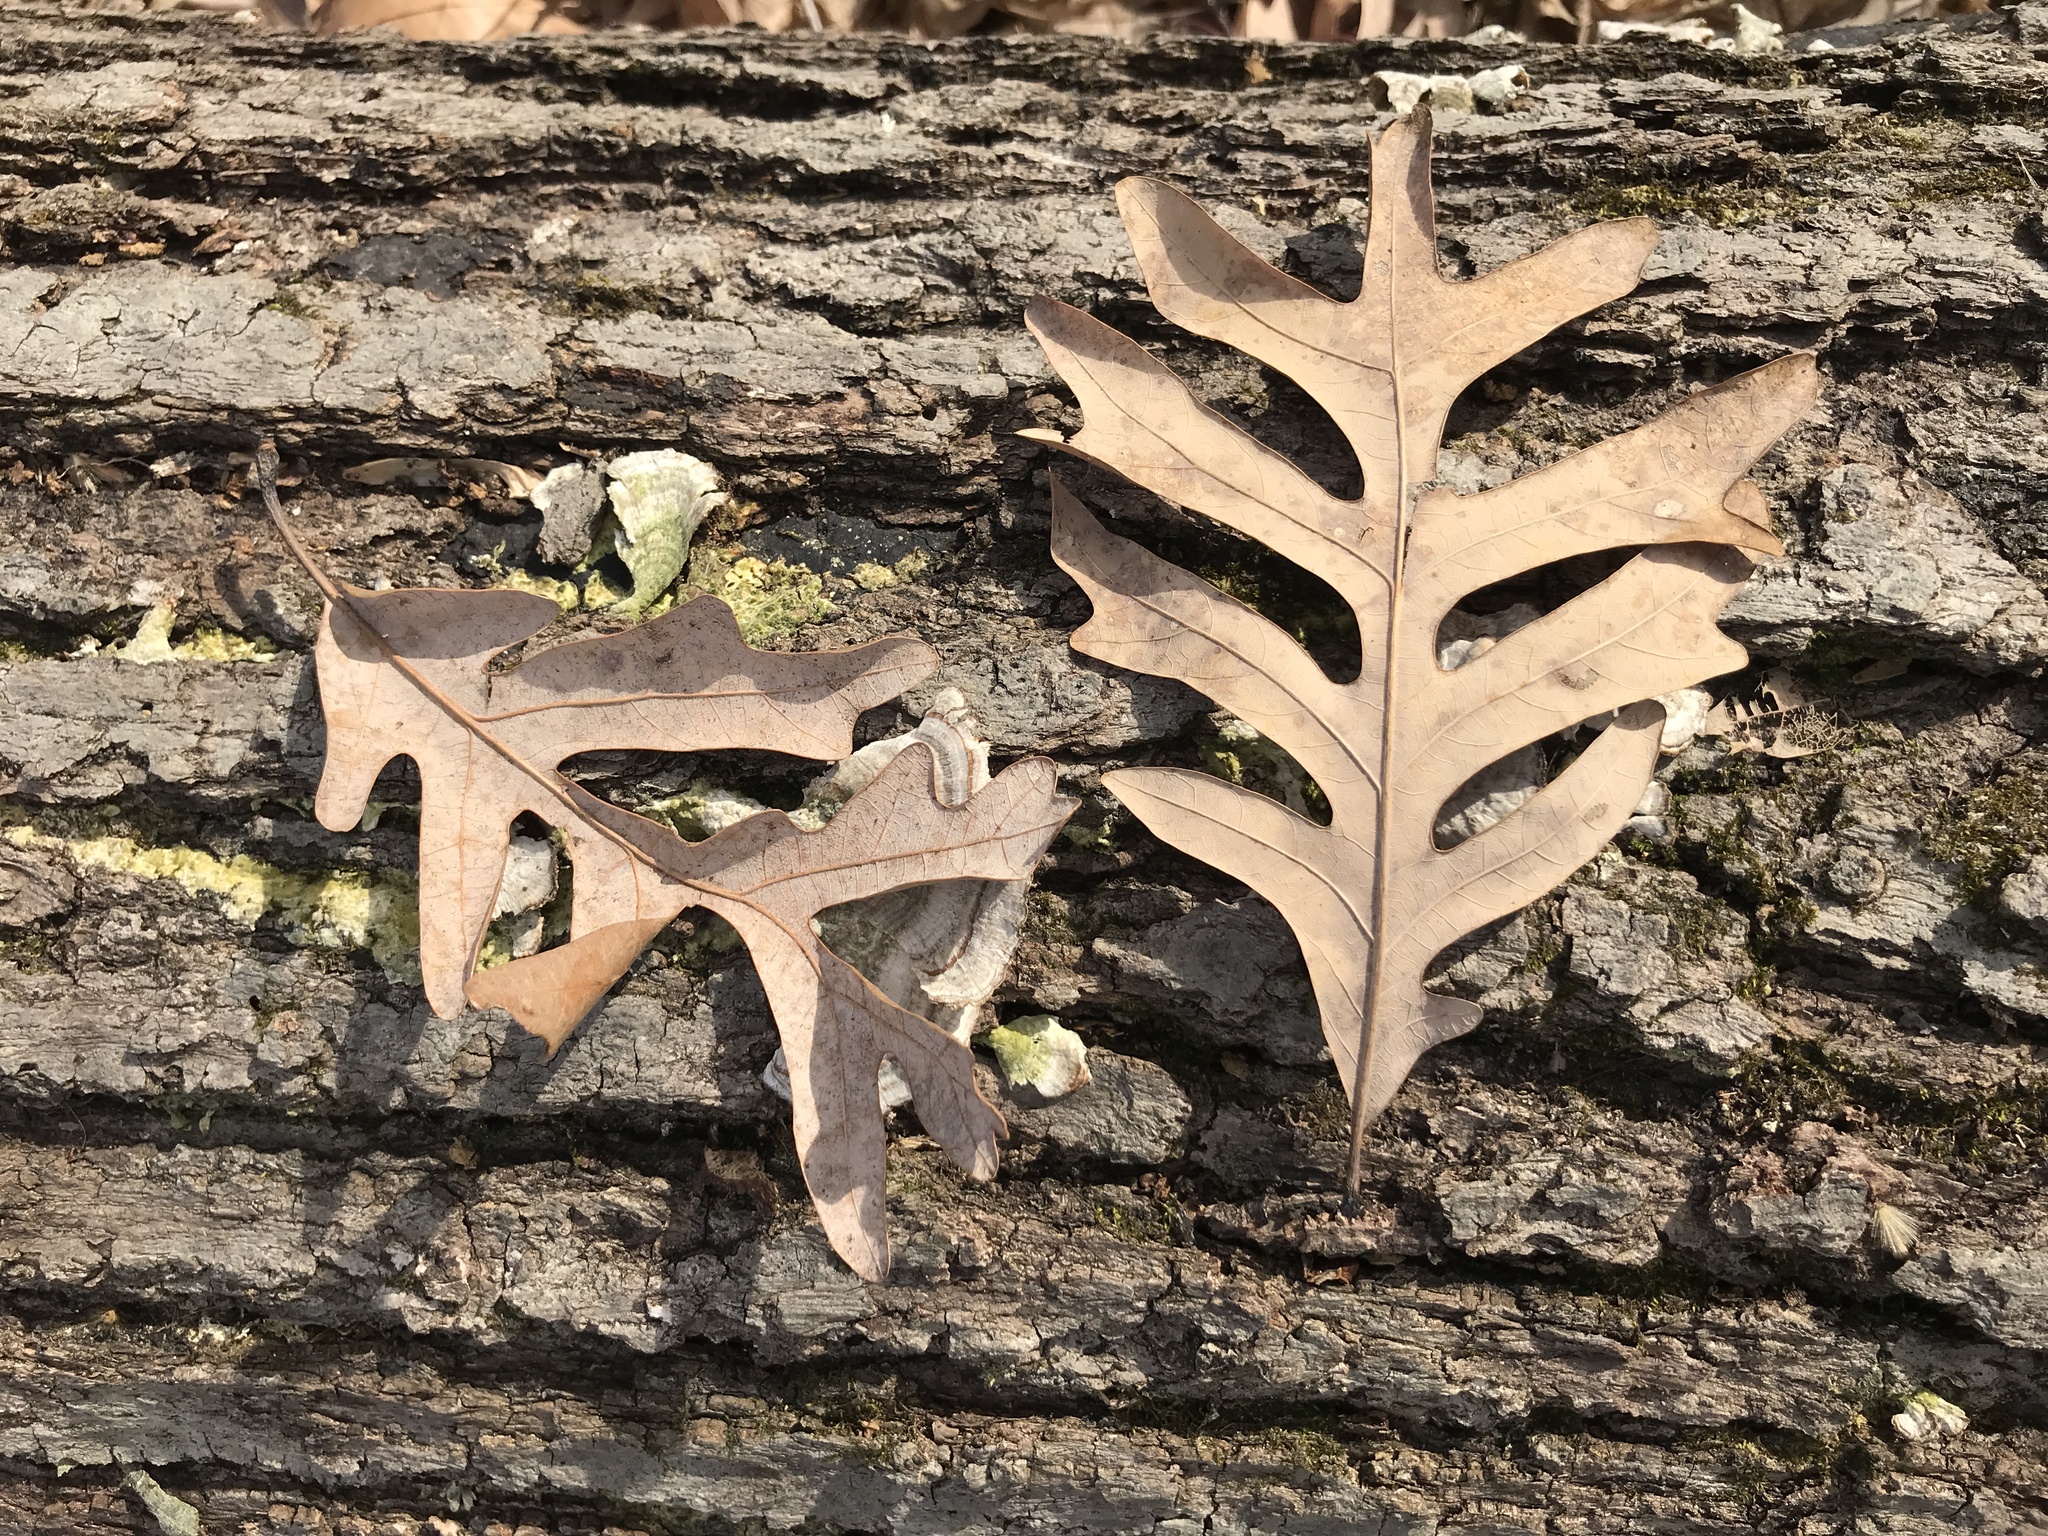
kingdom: Plantae
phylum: Tracheophyta
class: Magnoliopsida
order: Fagales
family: Fagaceae
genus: Quercus
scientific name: Quercus alba
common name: White oak
